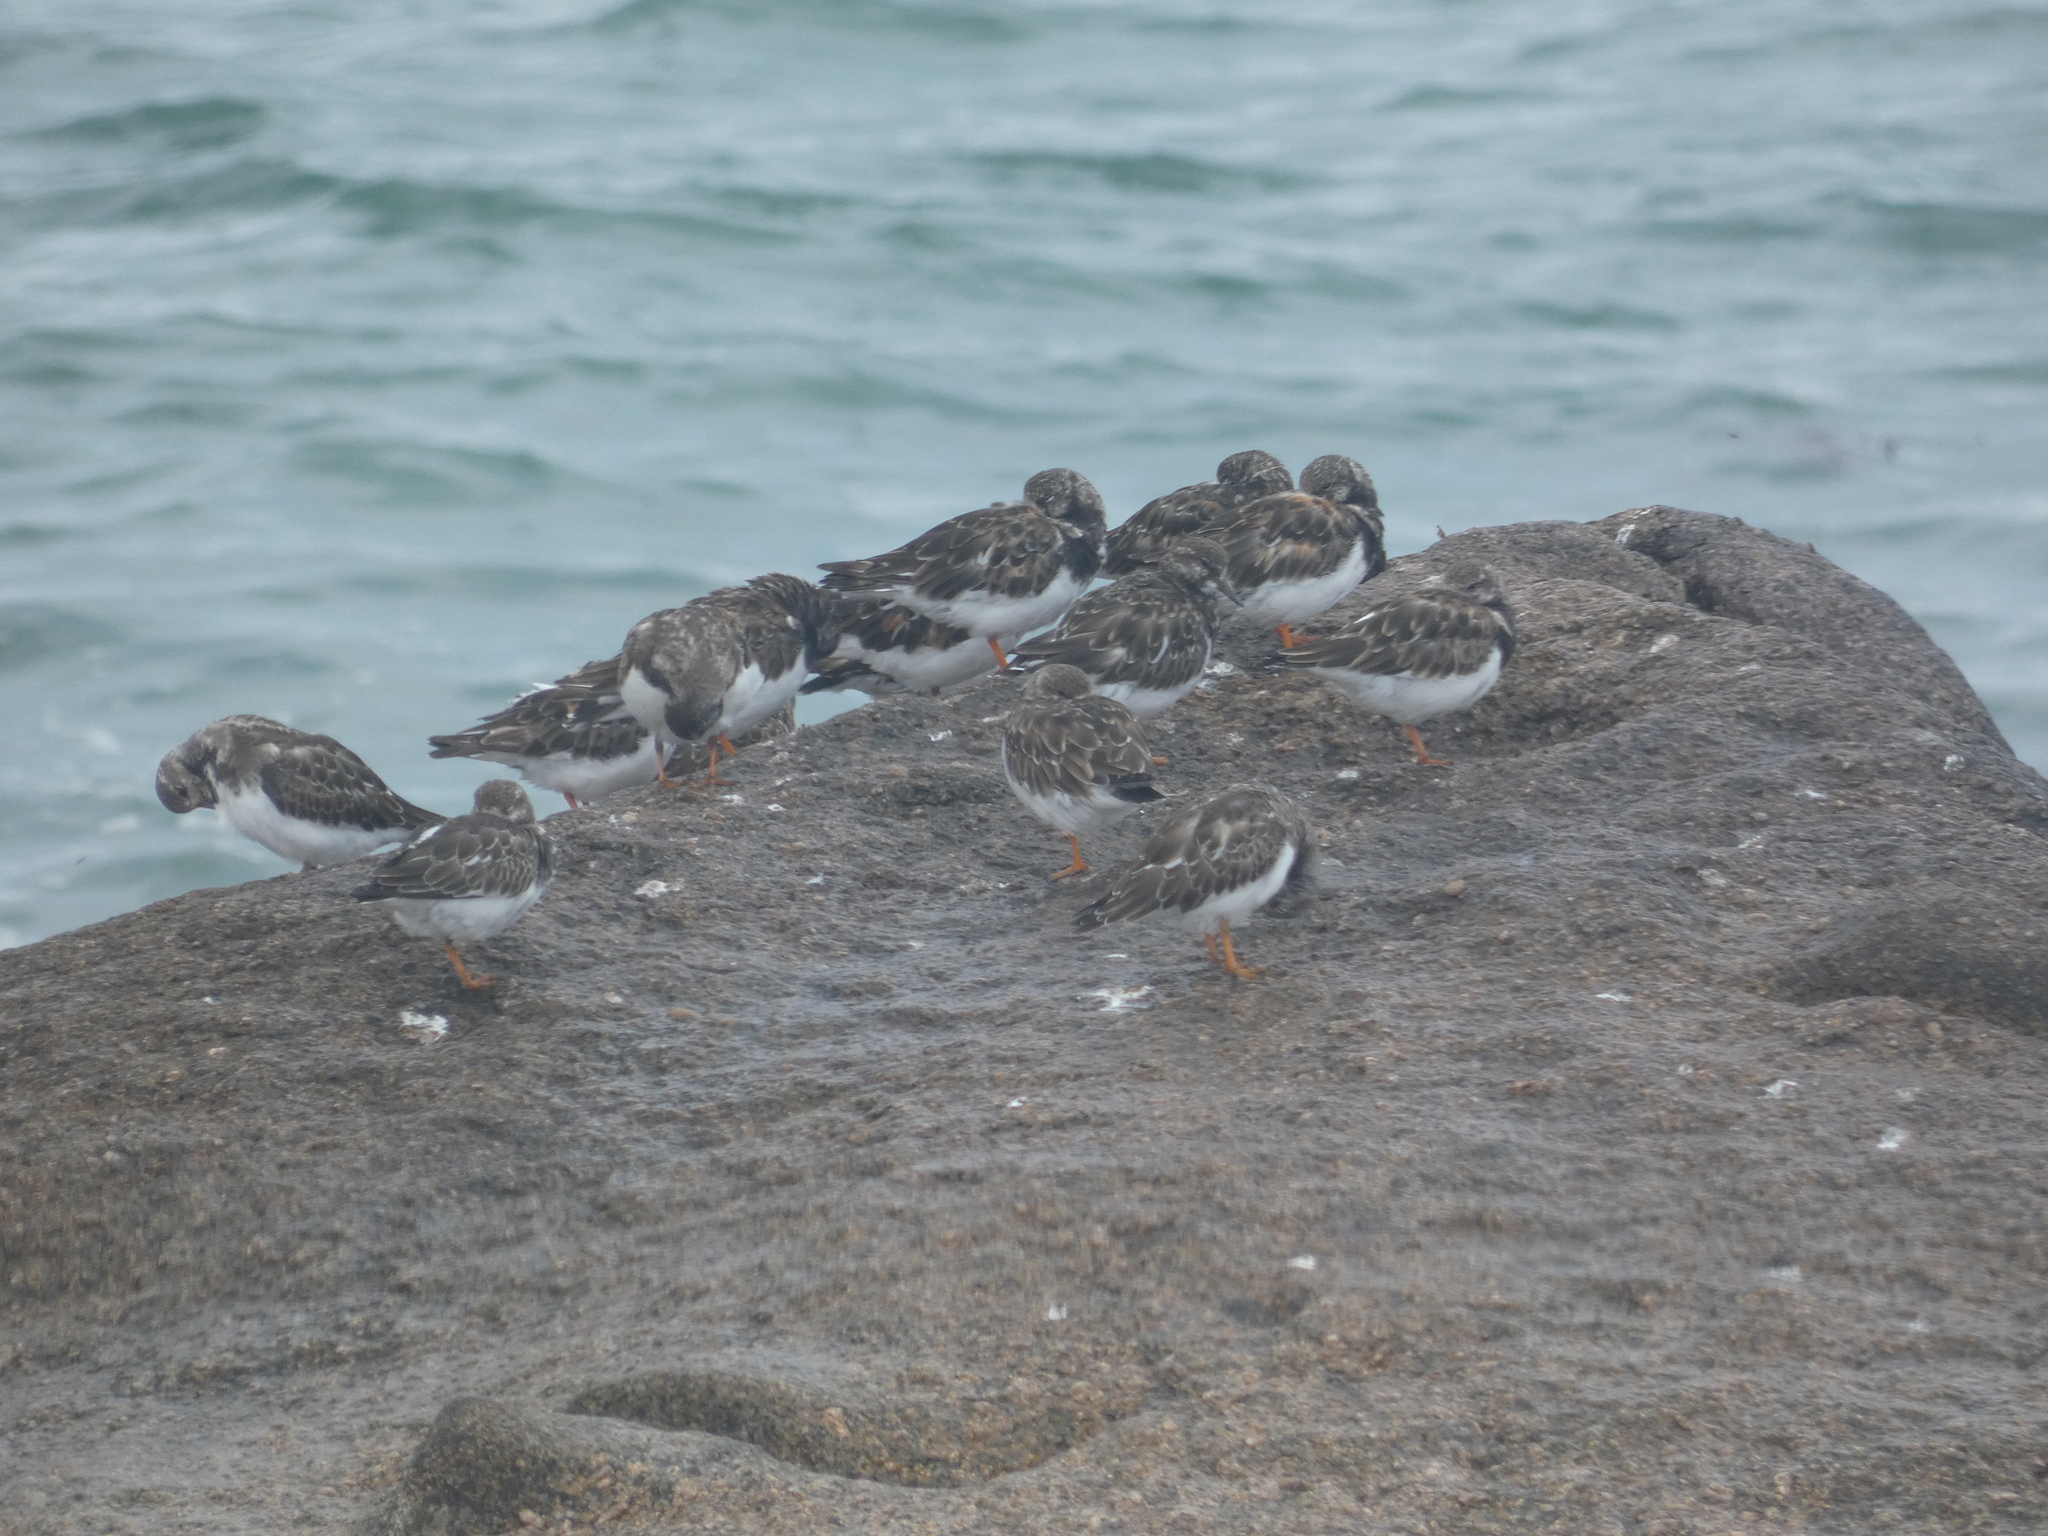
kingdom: Animalia
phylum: Chordata
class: Aves
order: Charadriiformes
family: Scolopacidae
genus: Arenaria
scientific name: Arenaria interpres
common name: Ruddy turnstone
